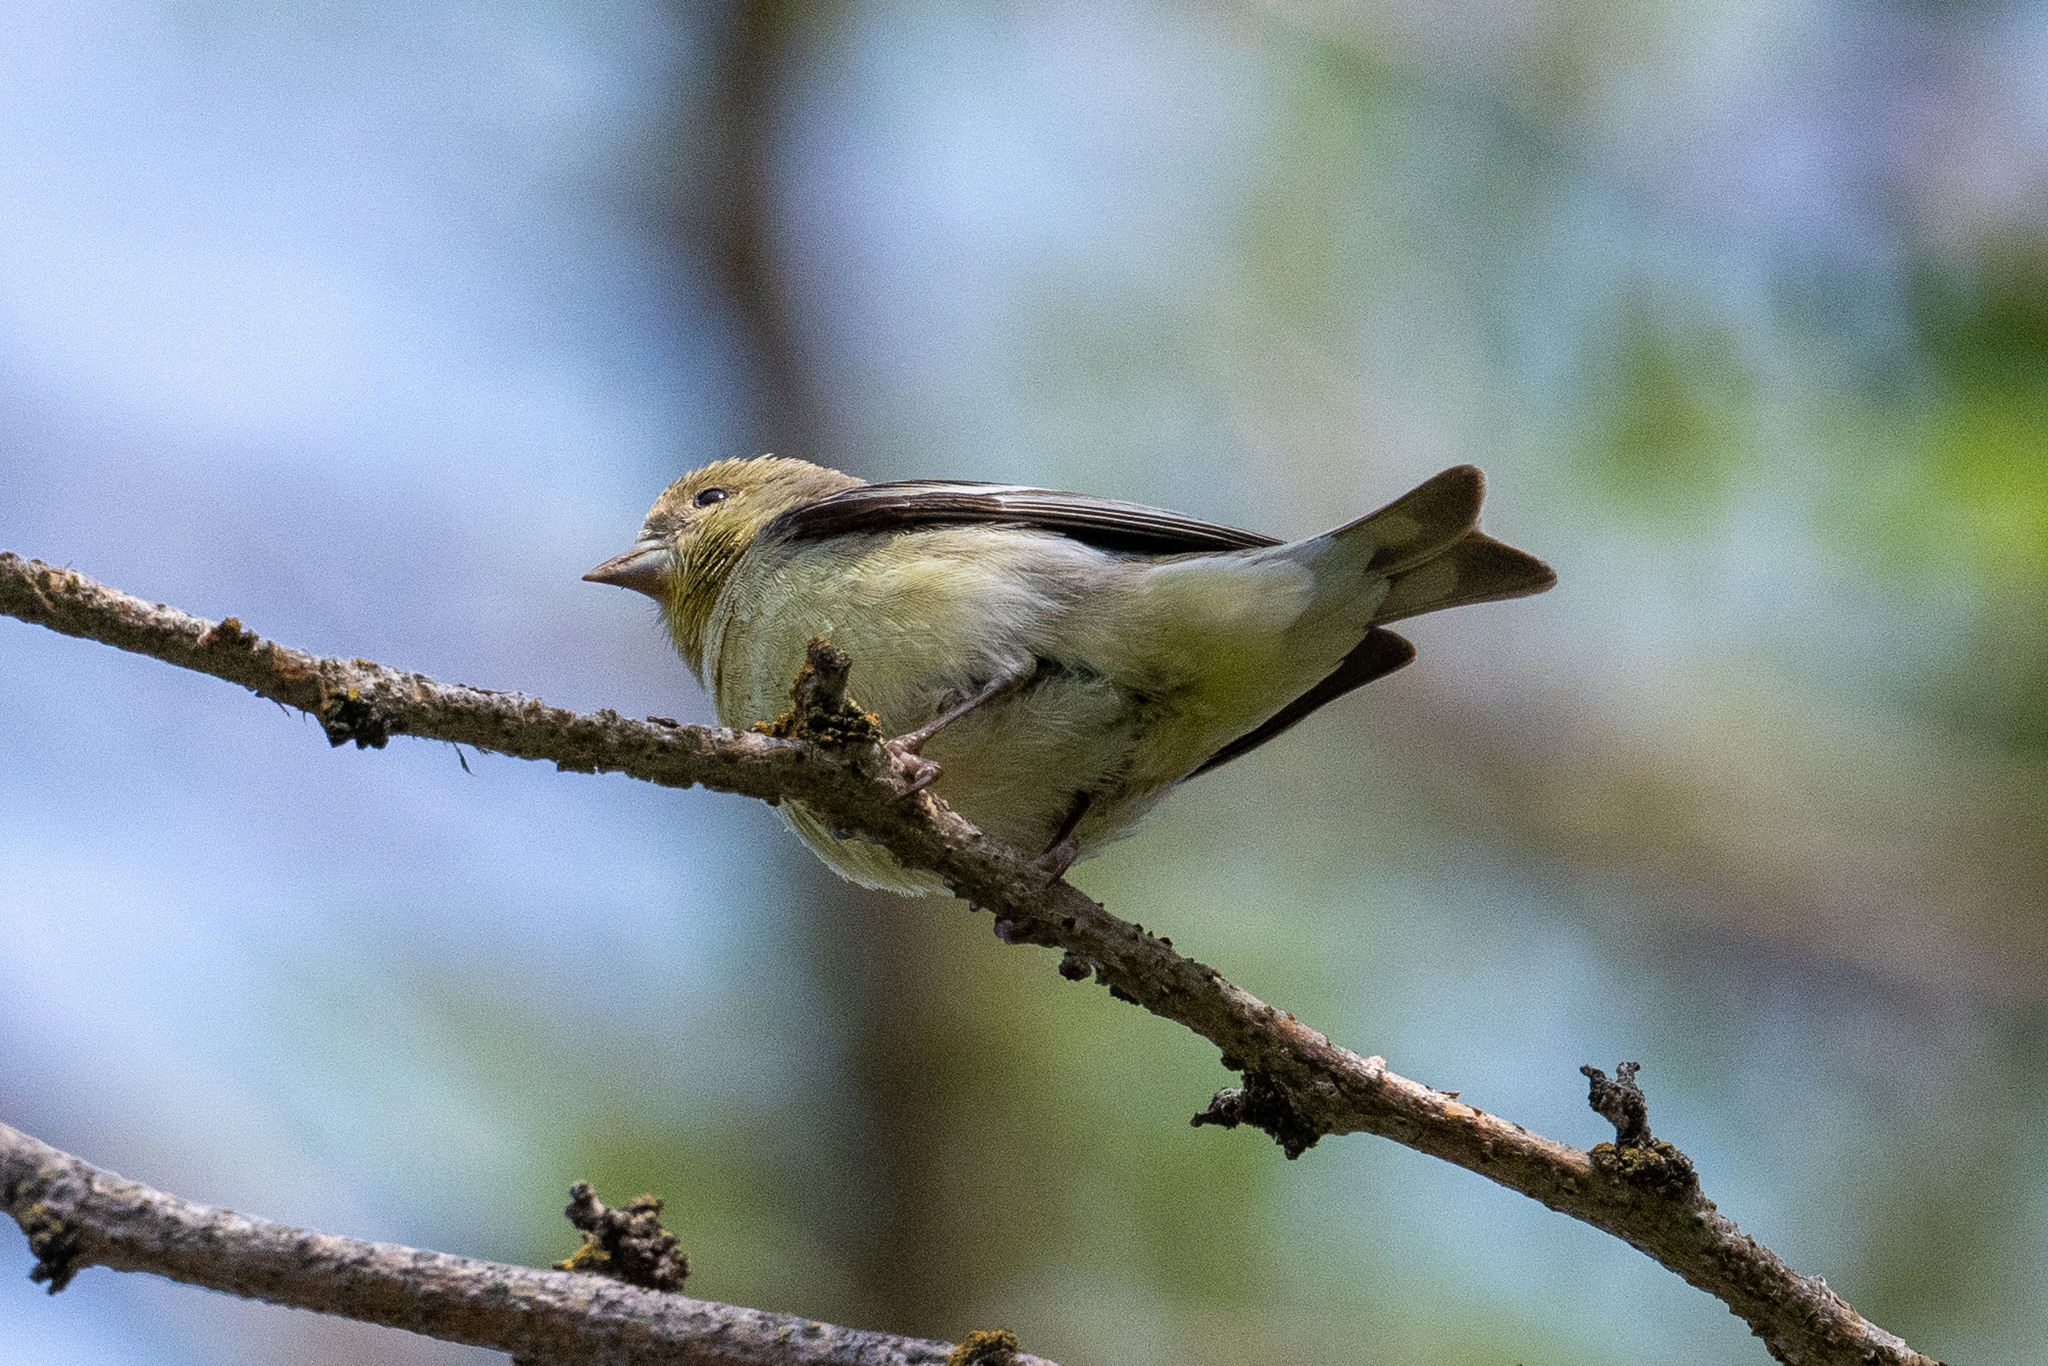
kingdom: Animalia
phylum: Chordata
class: Aves
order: Passeriformes
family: Fringillidae
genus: Spinus
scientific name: Spinus tristis
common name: American goldfinch
